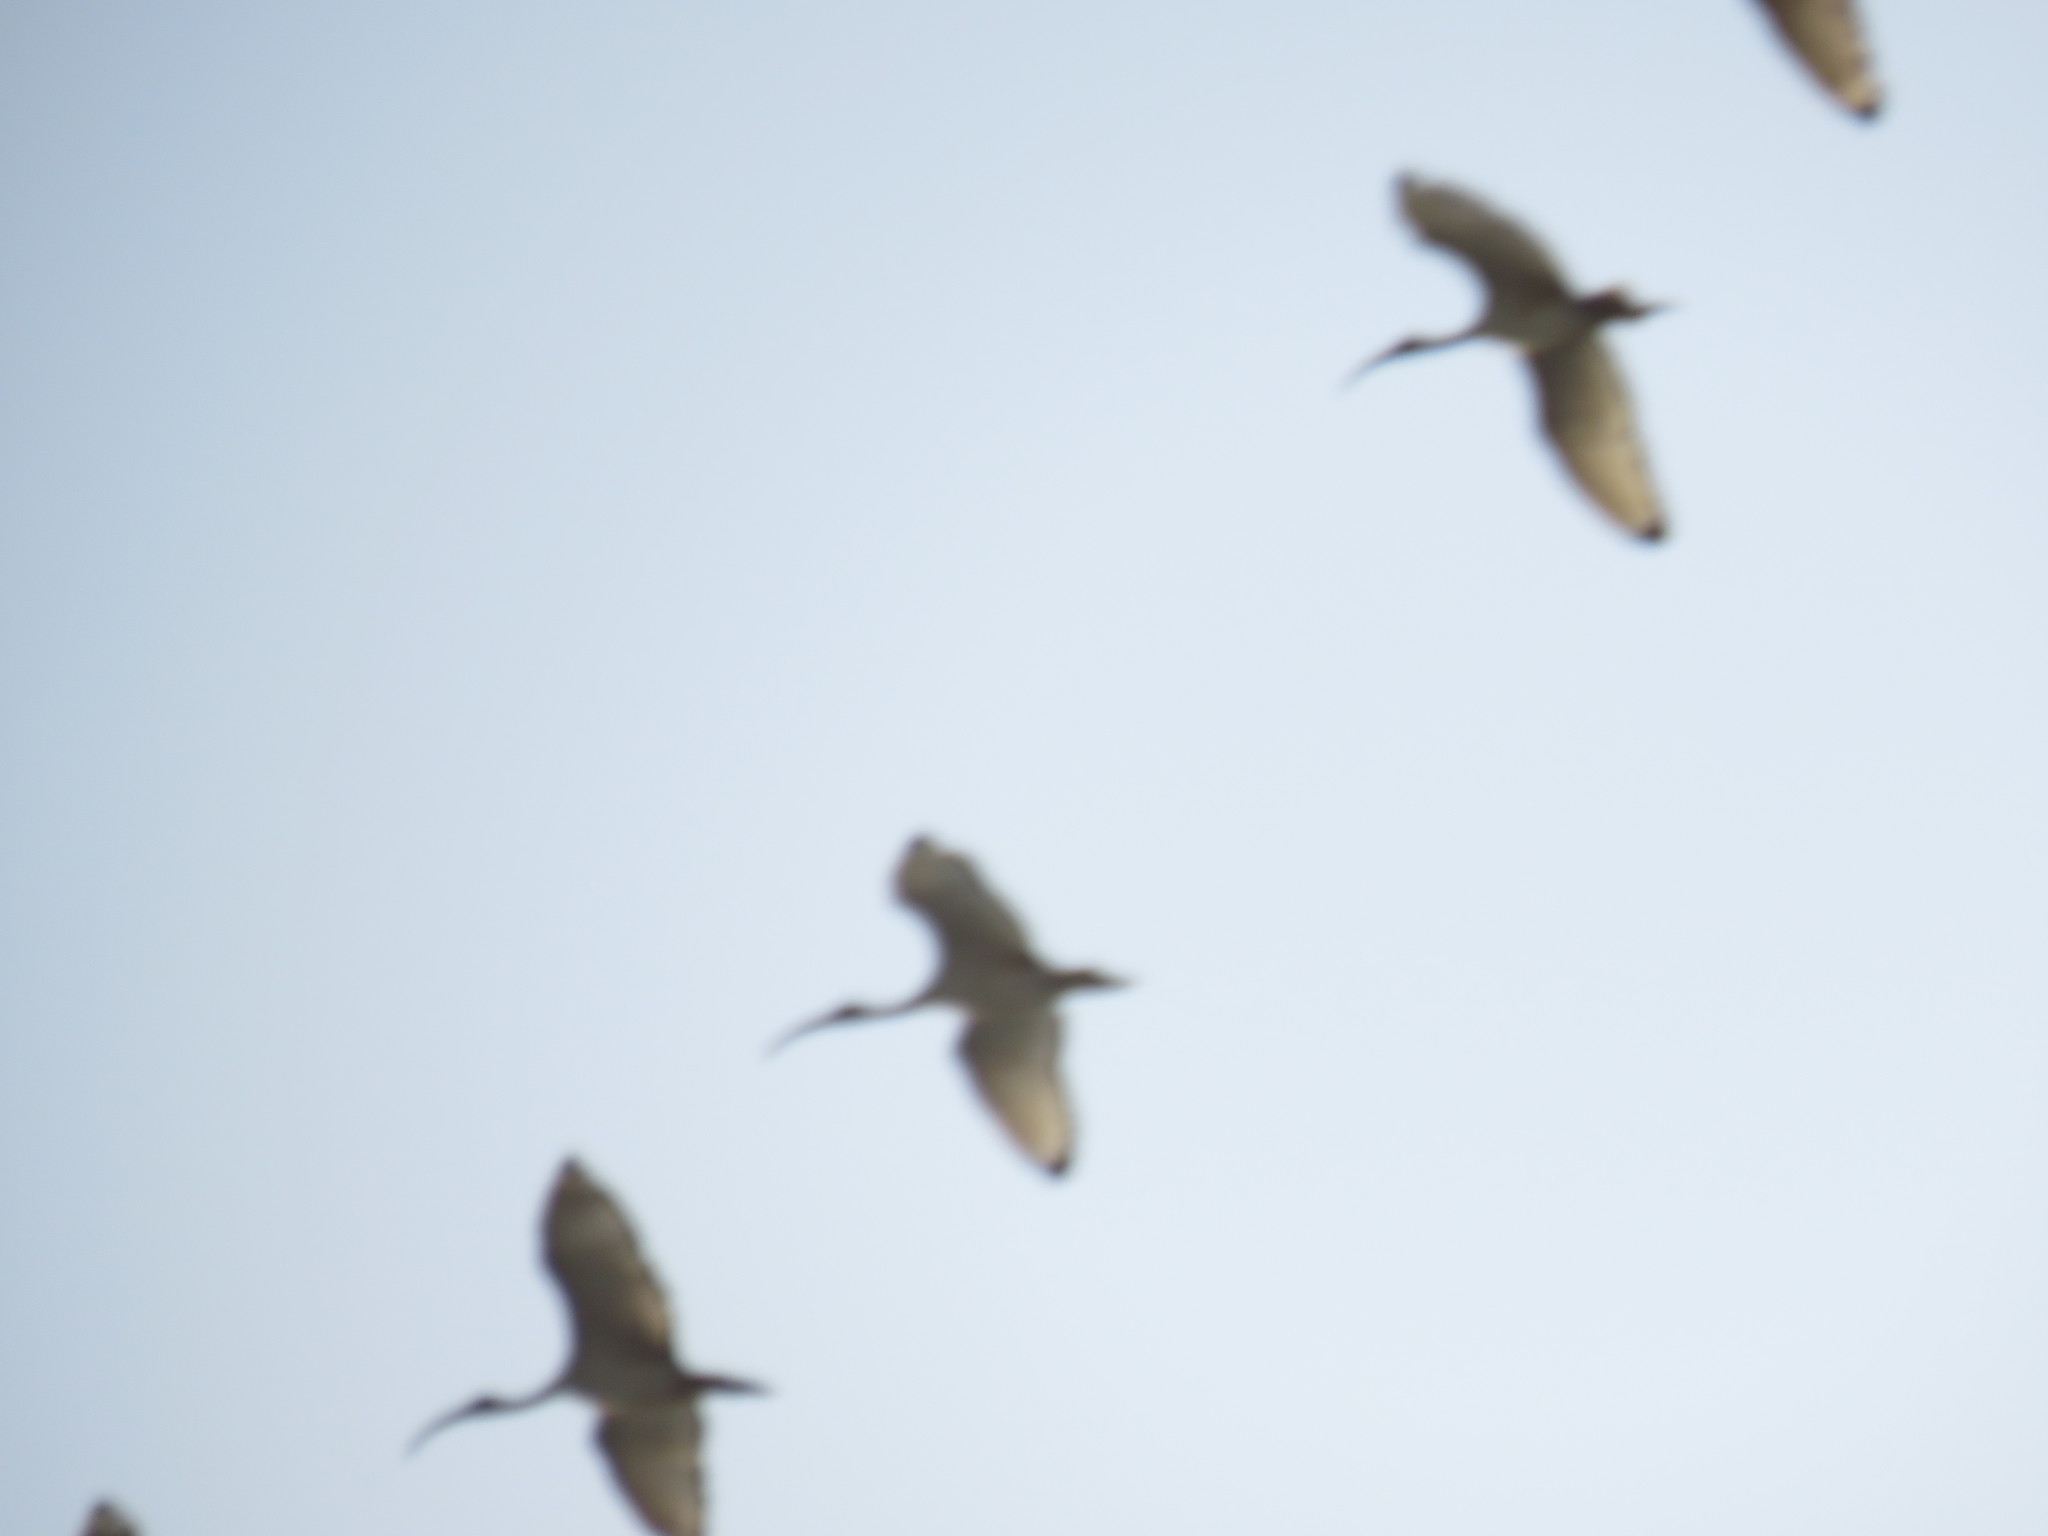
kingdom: Animalia
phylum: Chordata
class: Aves
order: Pelecaniformes
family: Threskiornithidae
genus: Threskiornis
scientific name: Threskiornis aethiopicus
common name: Sacred ibis
